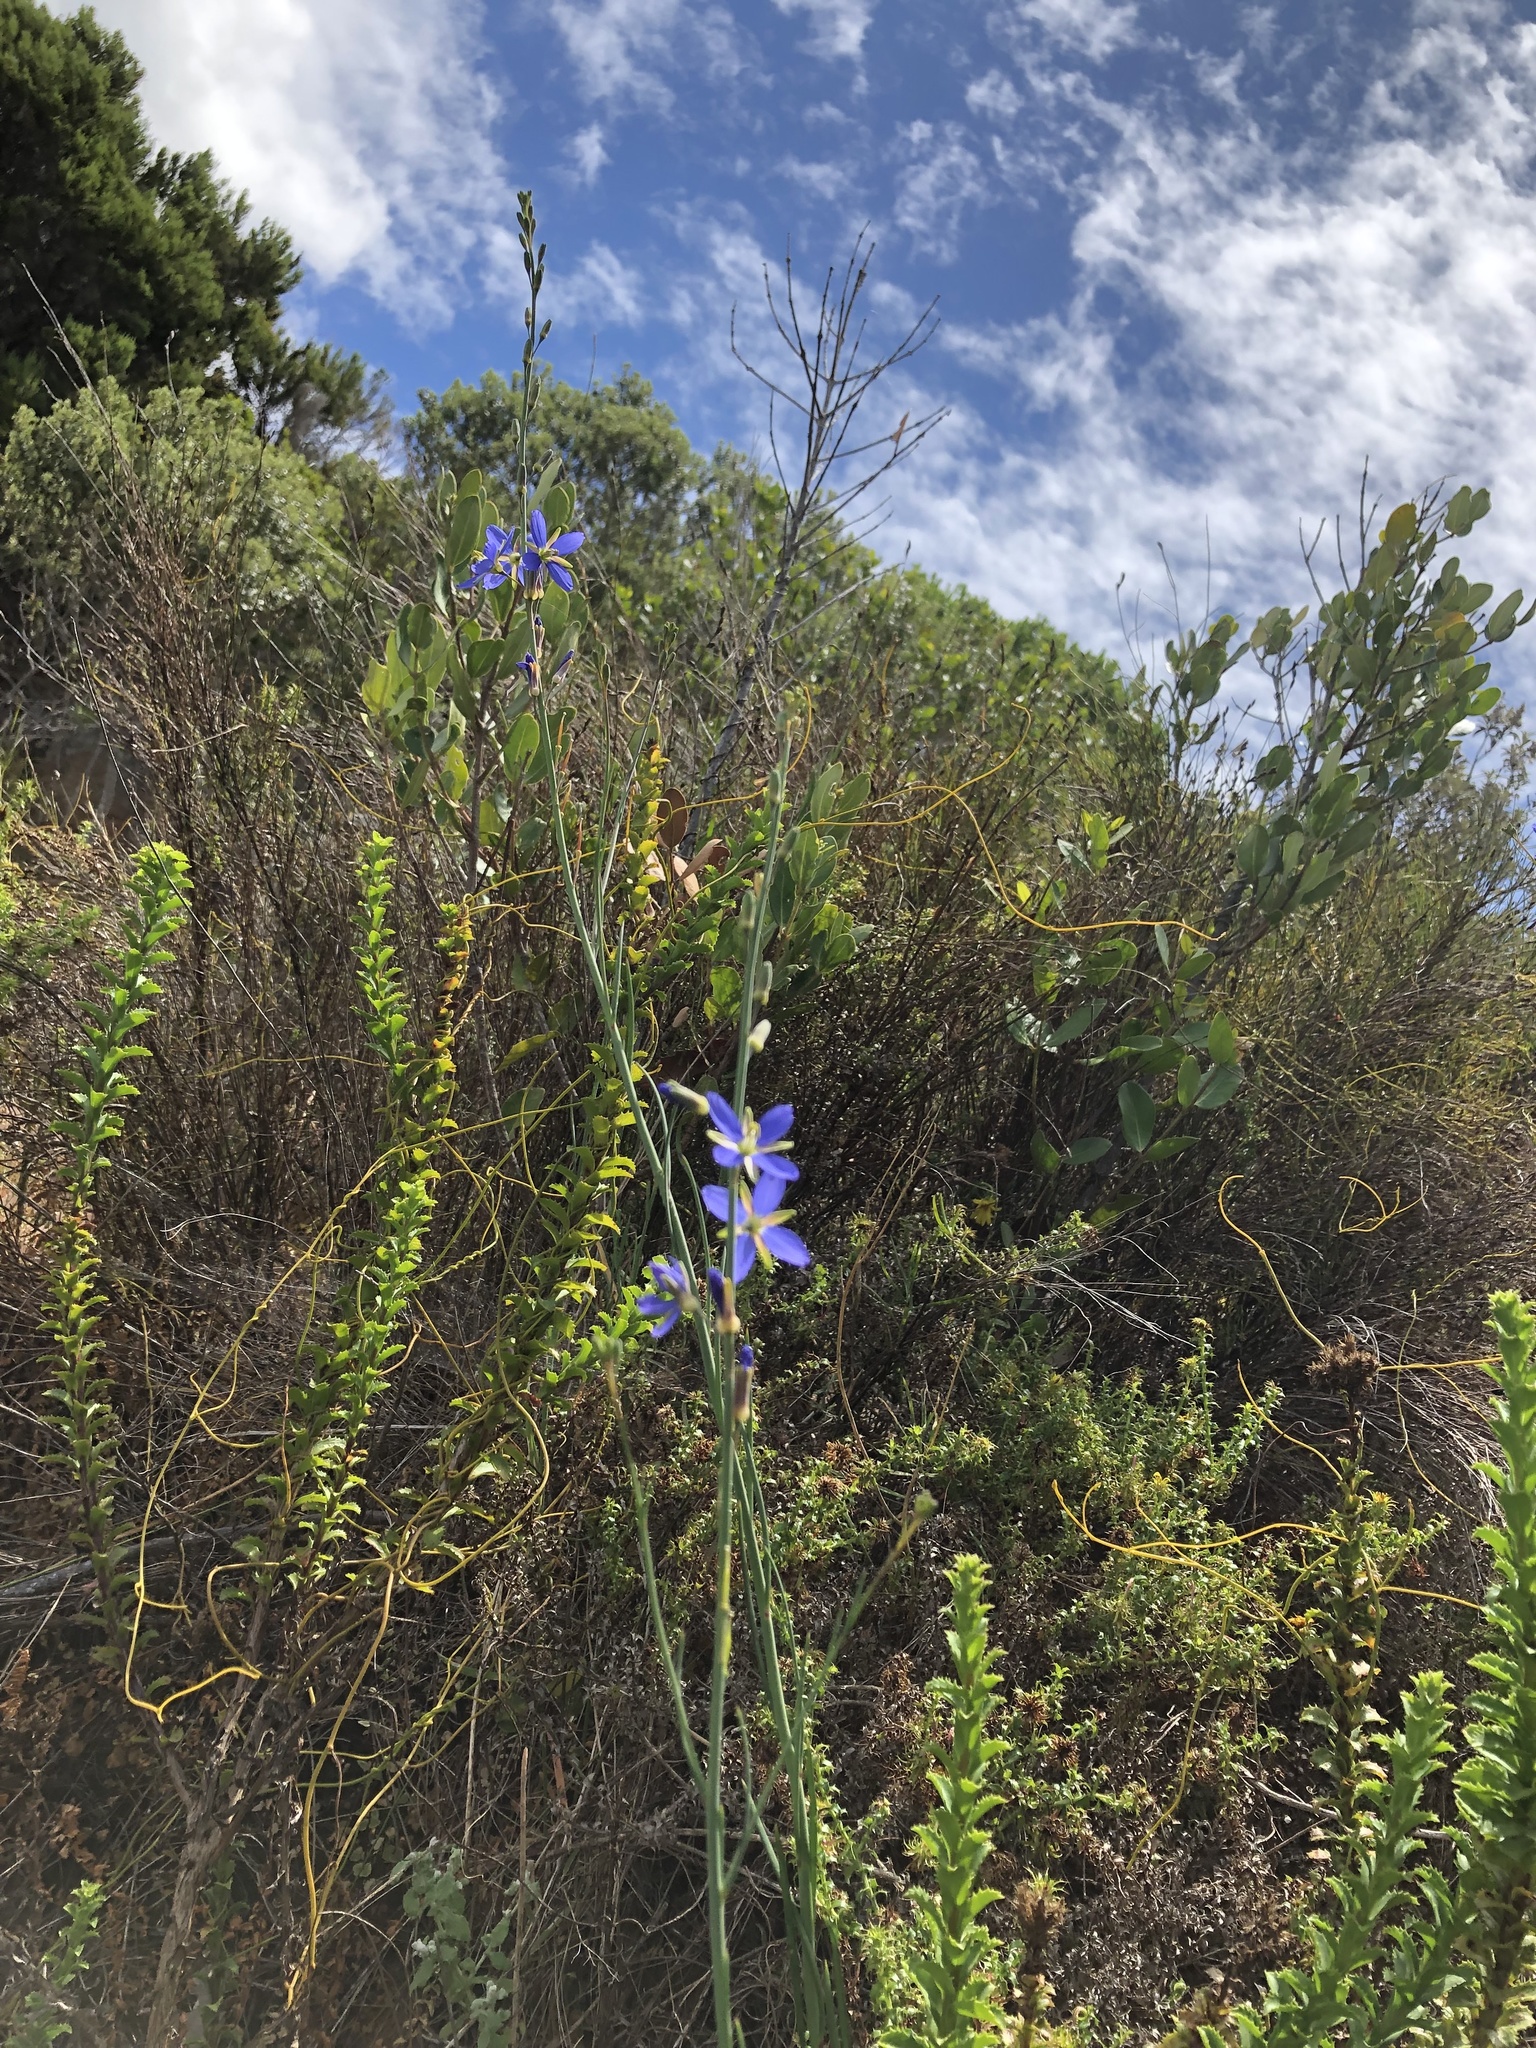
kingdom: Plantae
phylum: Tracheophyta
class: Magnoliopsida
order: Brassicales
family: Brassicaceae
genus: Heliophila
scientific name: Heliophila linearis
